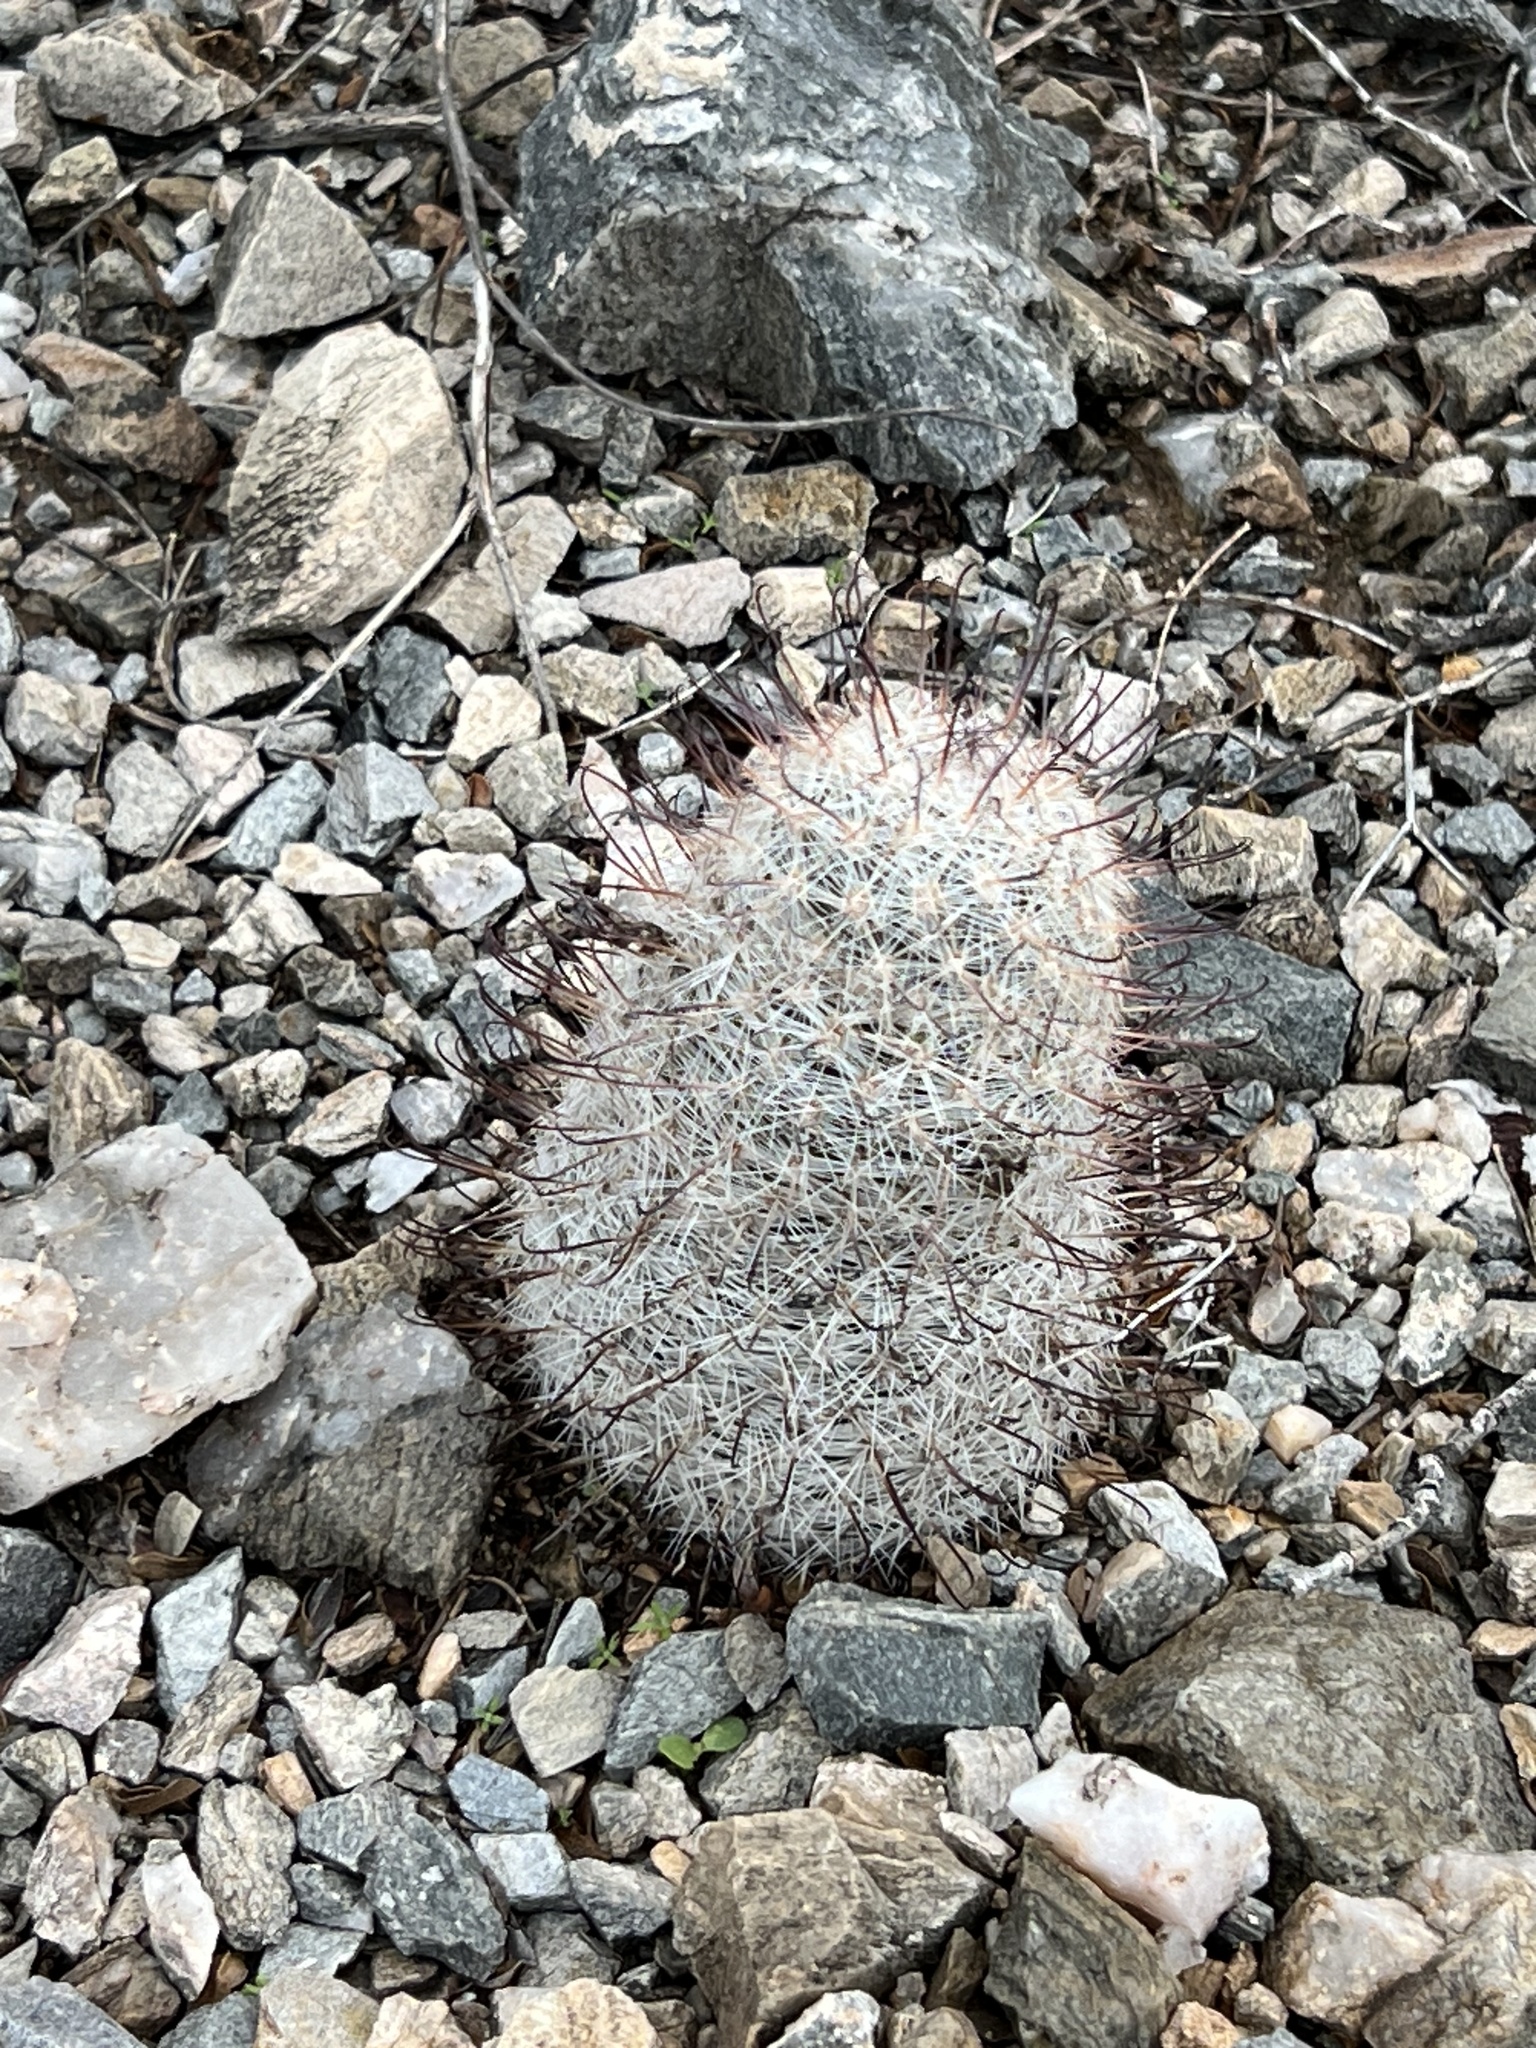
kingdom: Plantae
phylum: Tracheophyta
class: Magnoliopsida
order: Caryophyllales
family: Cactaceae
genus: Cochemiea
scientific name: Cochemiea grahamii
